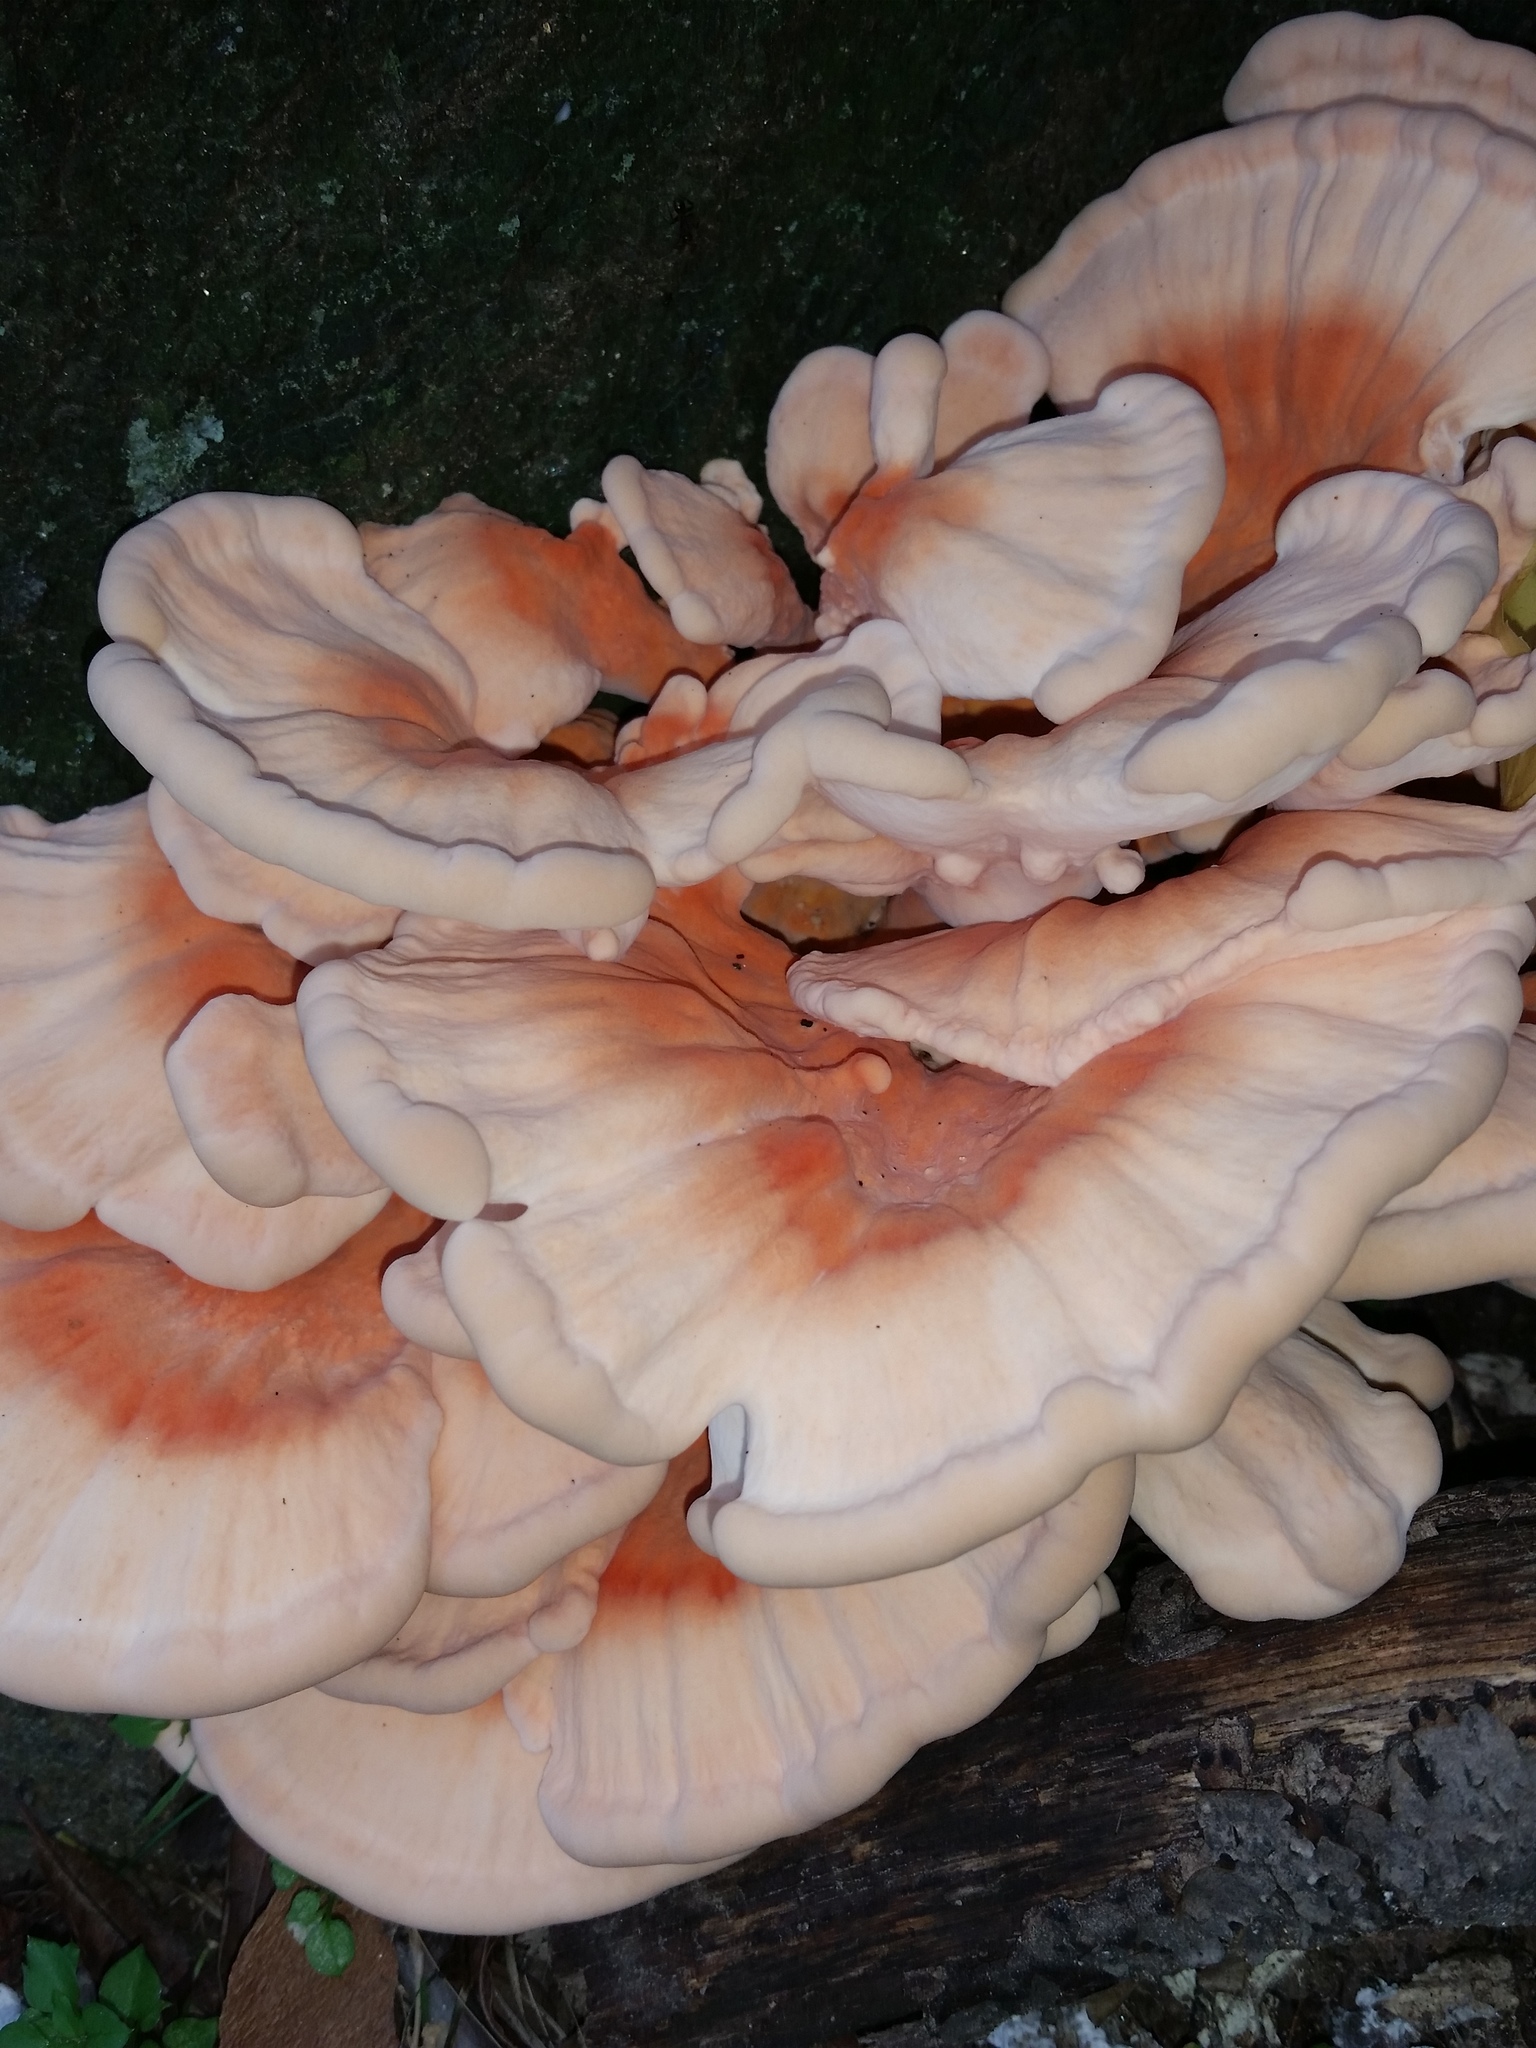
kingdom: Fungi
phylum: Basidiomycota
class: Agaricomycetes
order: Polyporales
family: Laetiporaceae
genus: Laetiporus
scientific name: Laetiporus sulphureus
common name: Chicken of the woods
